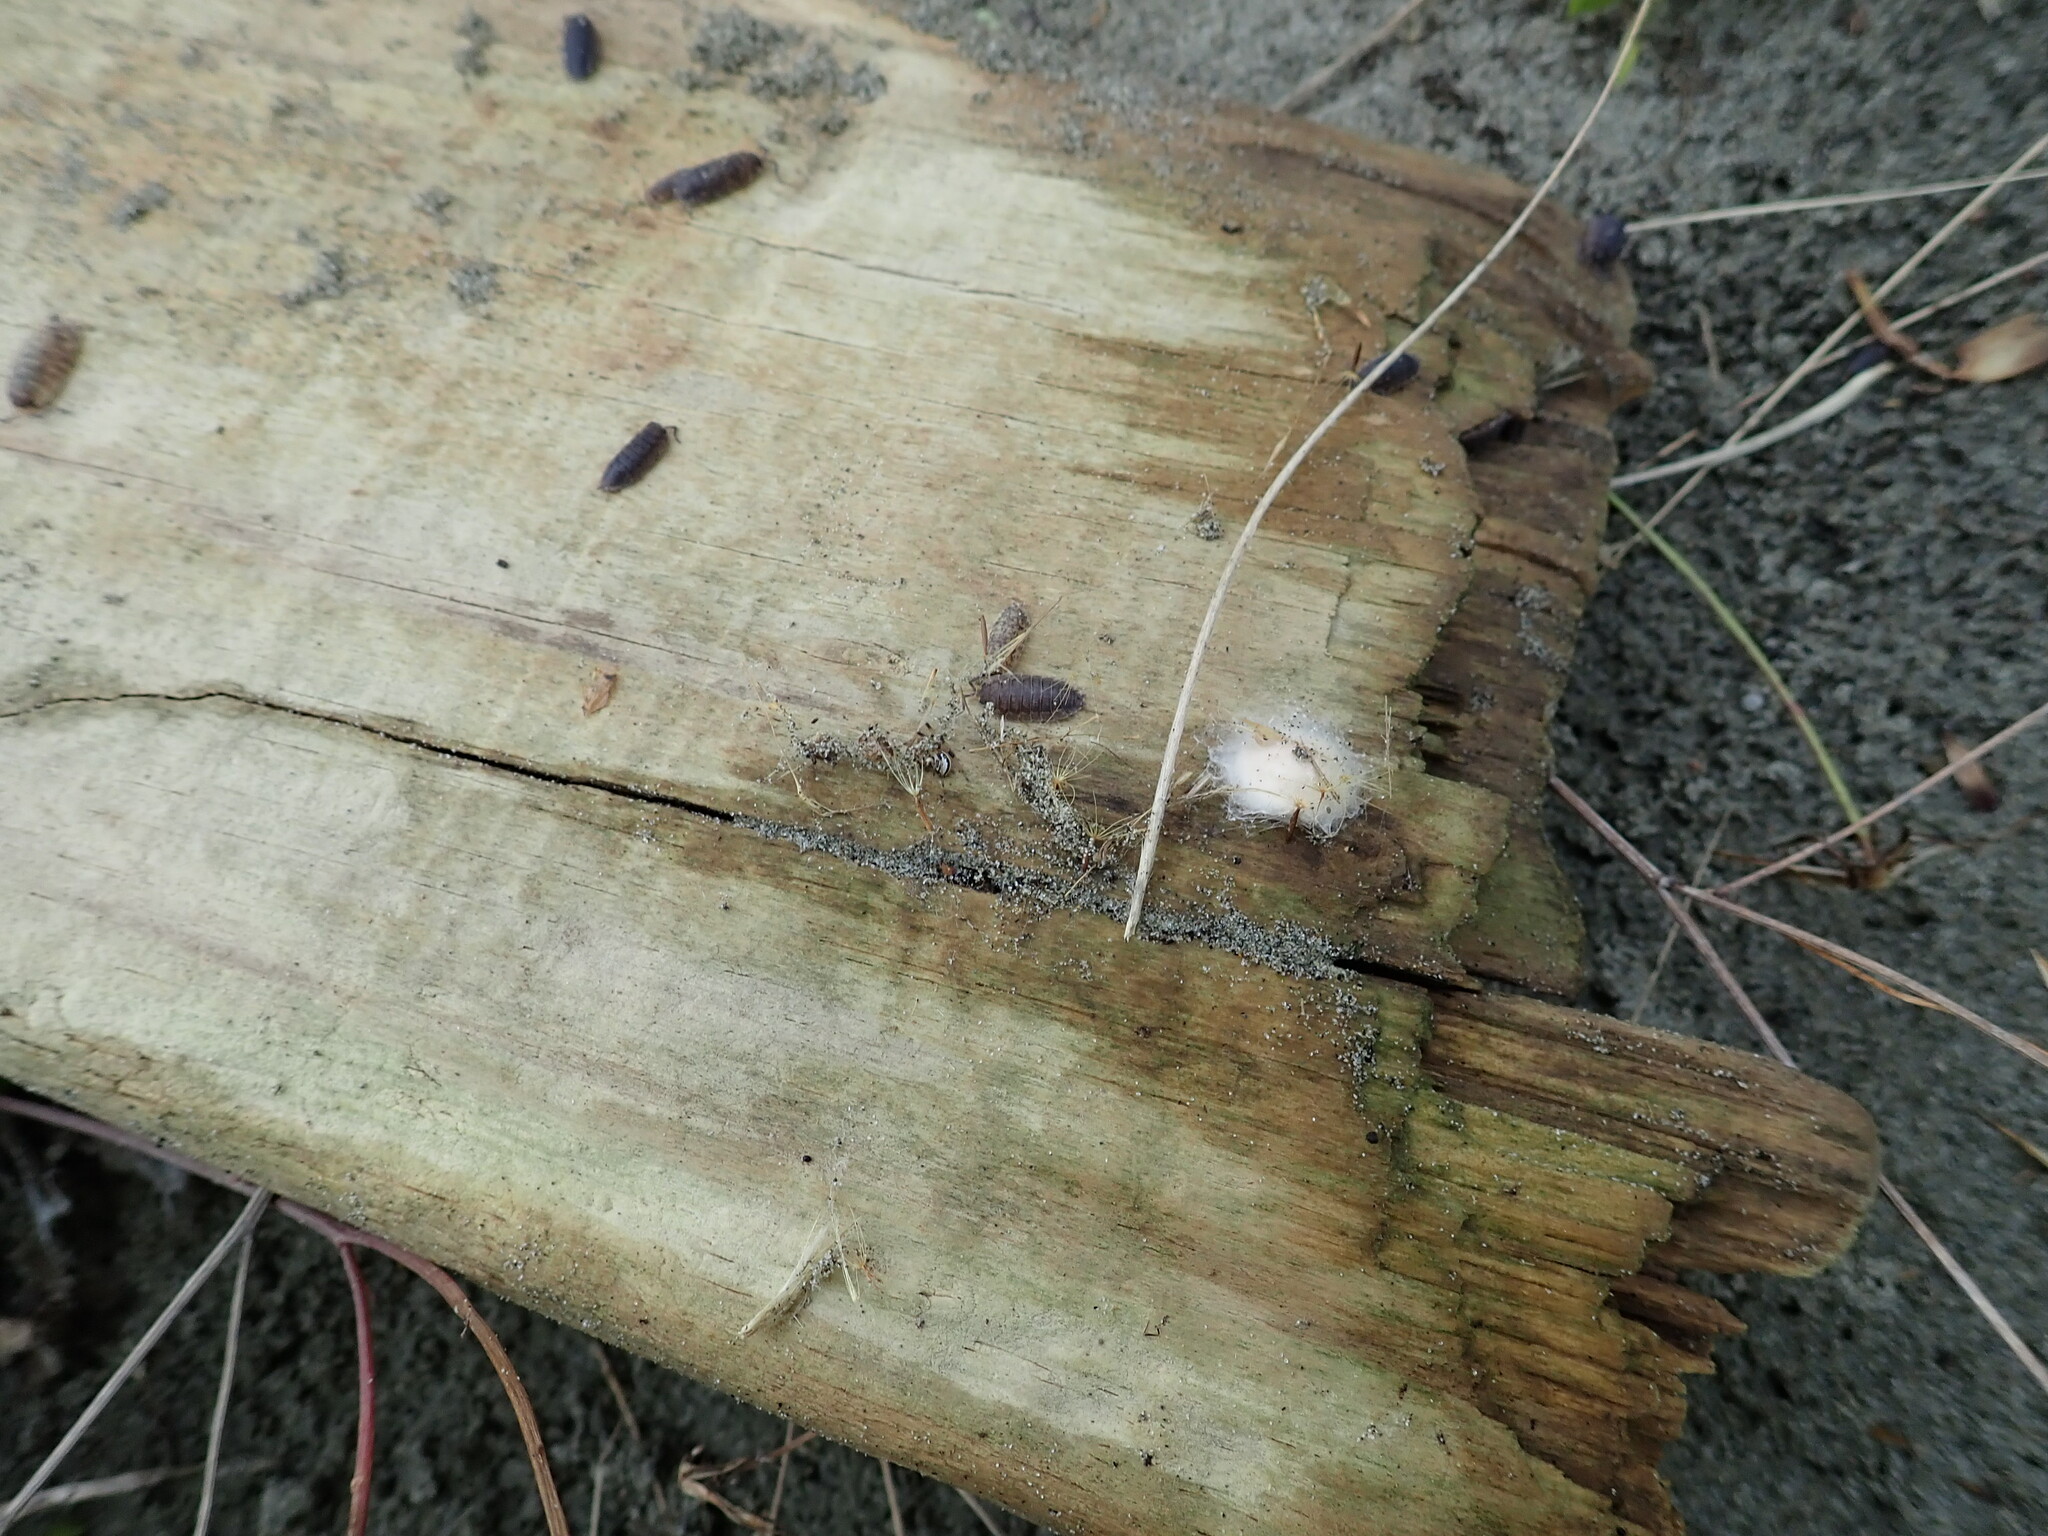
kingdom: Animalia
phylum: Arthropoda
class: Arachnida
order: Araneae
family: Theridiidae
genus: Latrodectus
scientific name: Latrodectus katipo
